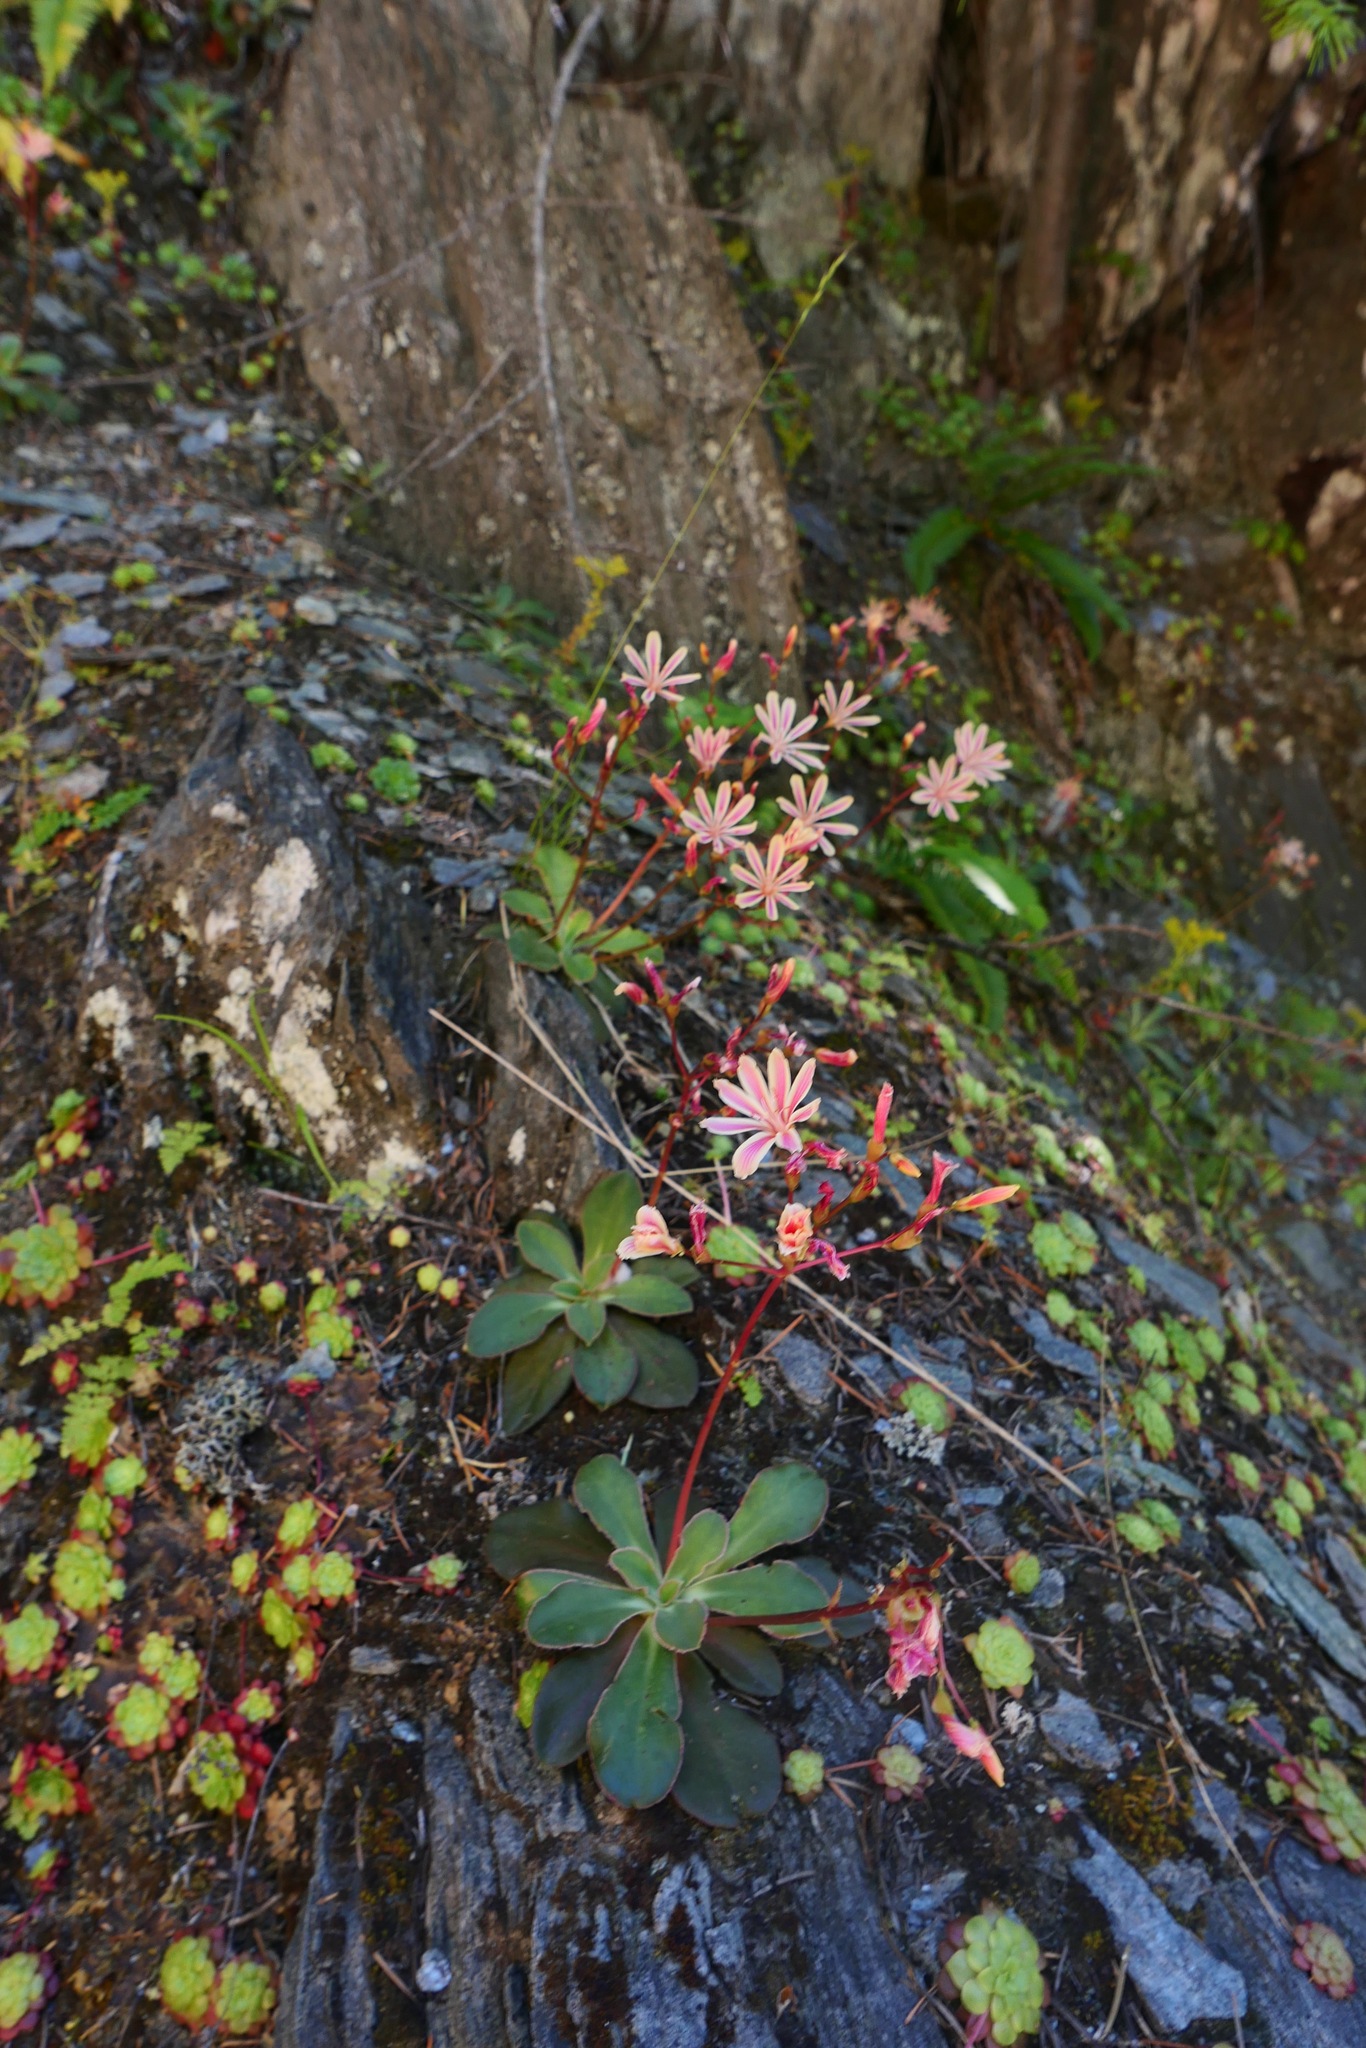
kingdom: Plantae
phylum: Tracheophyta
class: Magnoliopsida
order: Caryophyllales
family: Montiaceae
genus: Lewisia
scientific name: Lewisia cotyledon
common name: Siskiyou lewisia
